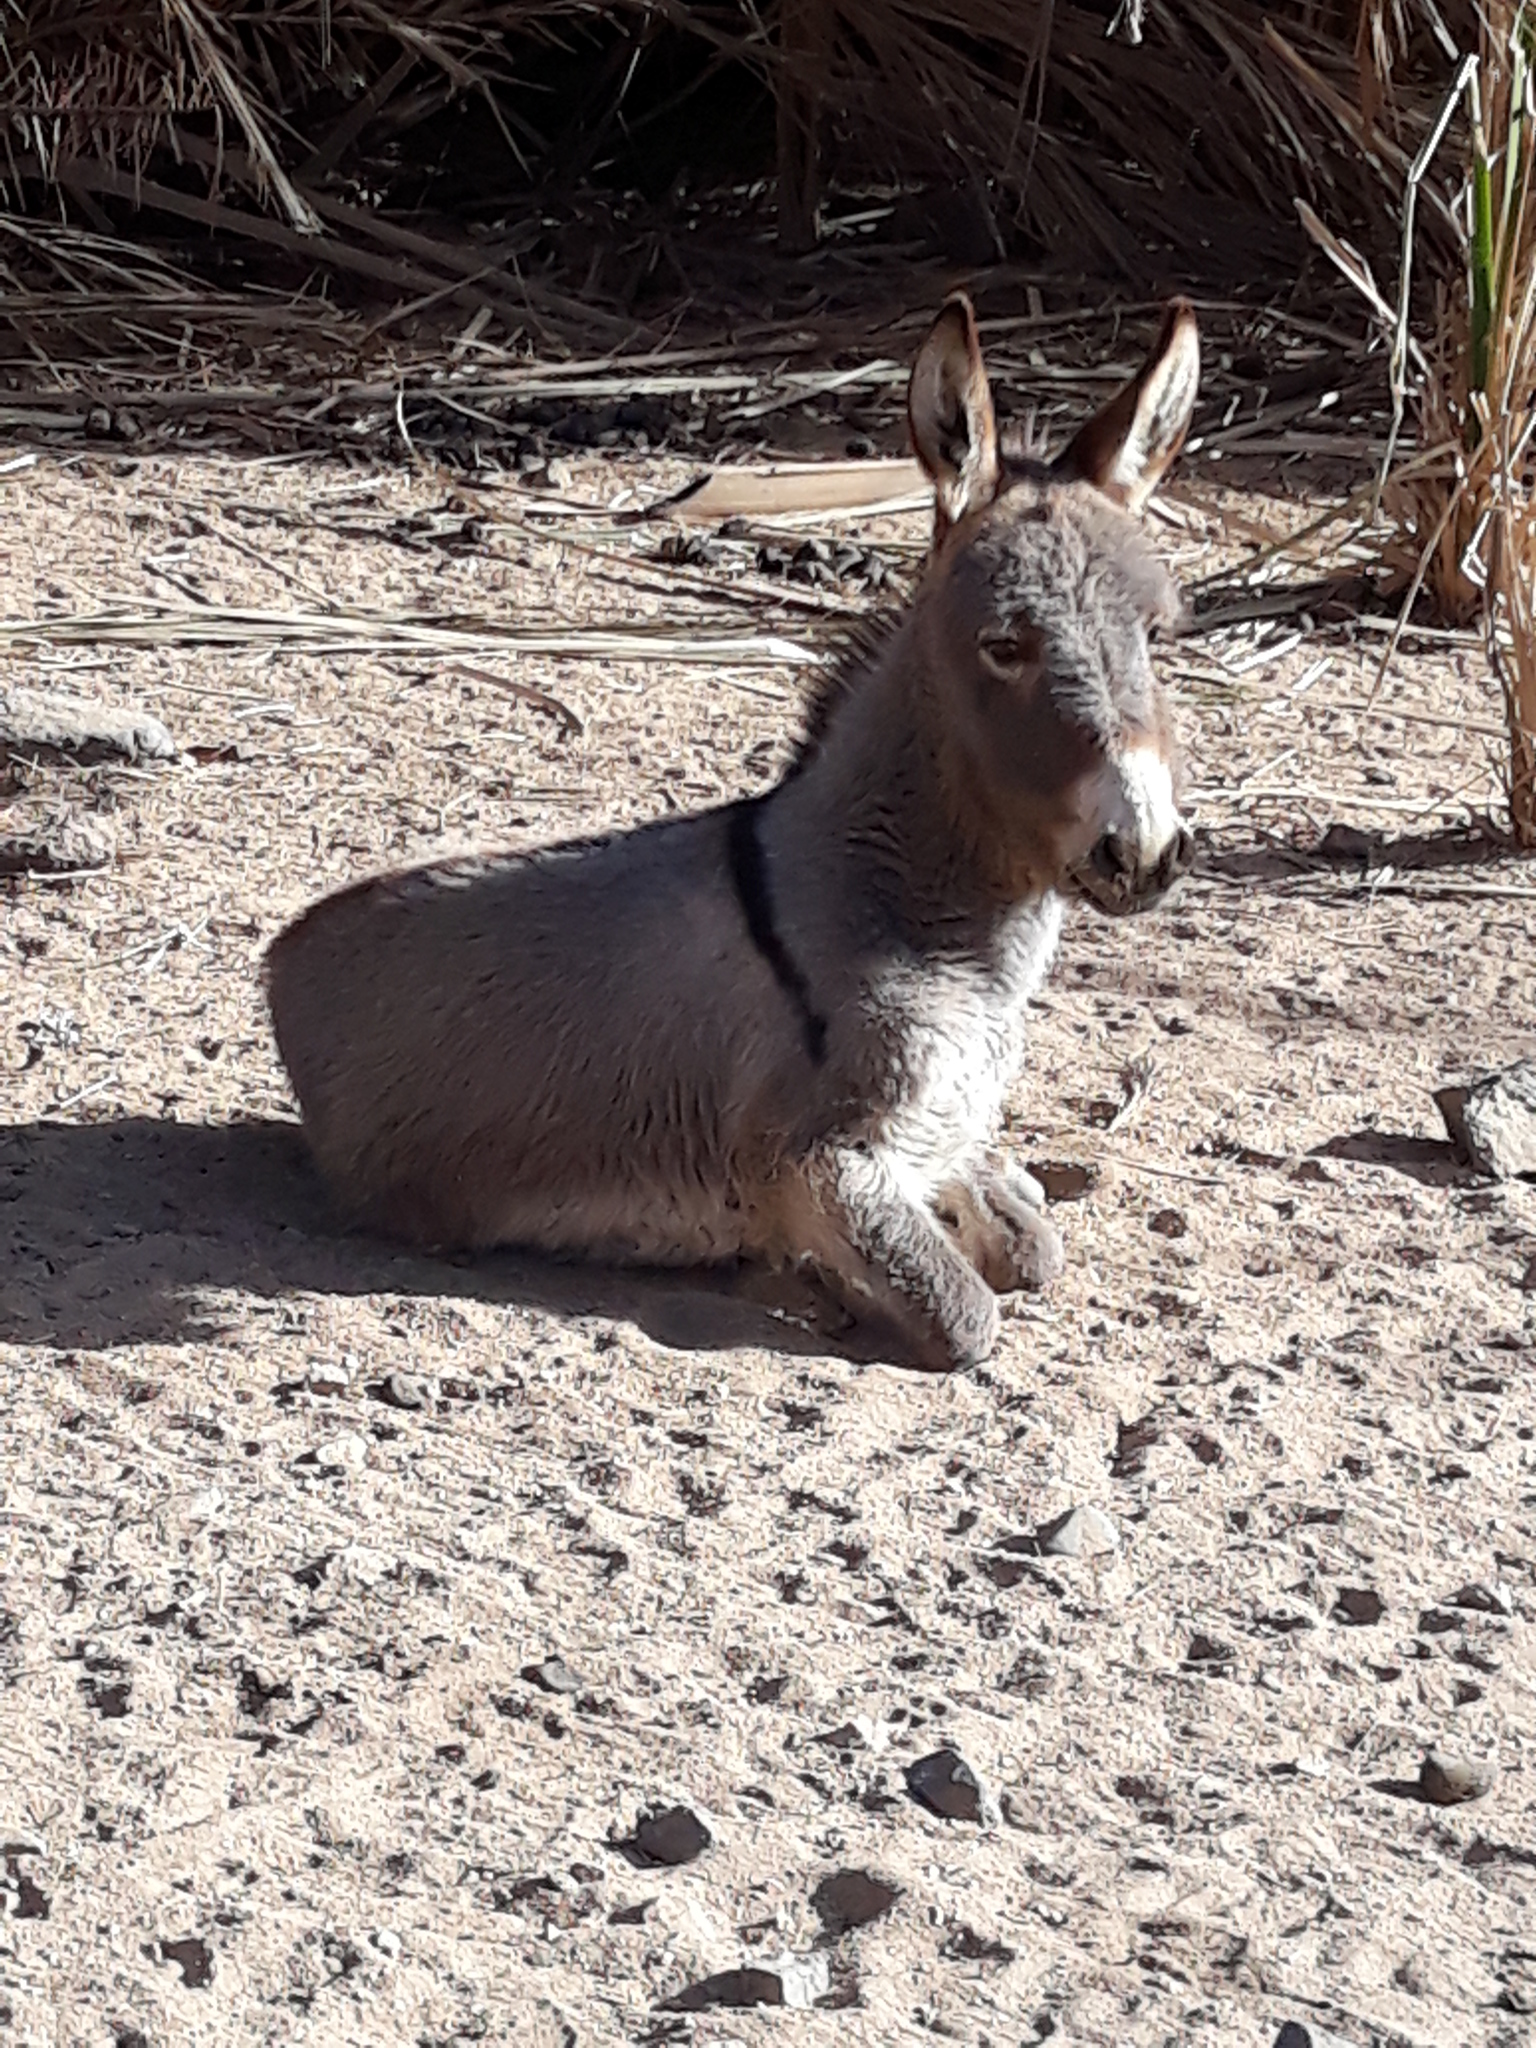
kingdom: Animalia
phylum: Chordata
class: Mammalia
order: Perissodactyla
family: Equidae
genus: Equus
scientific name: Equus asinus
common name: Ass
